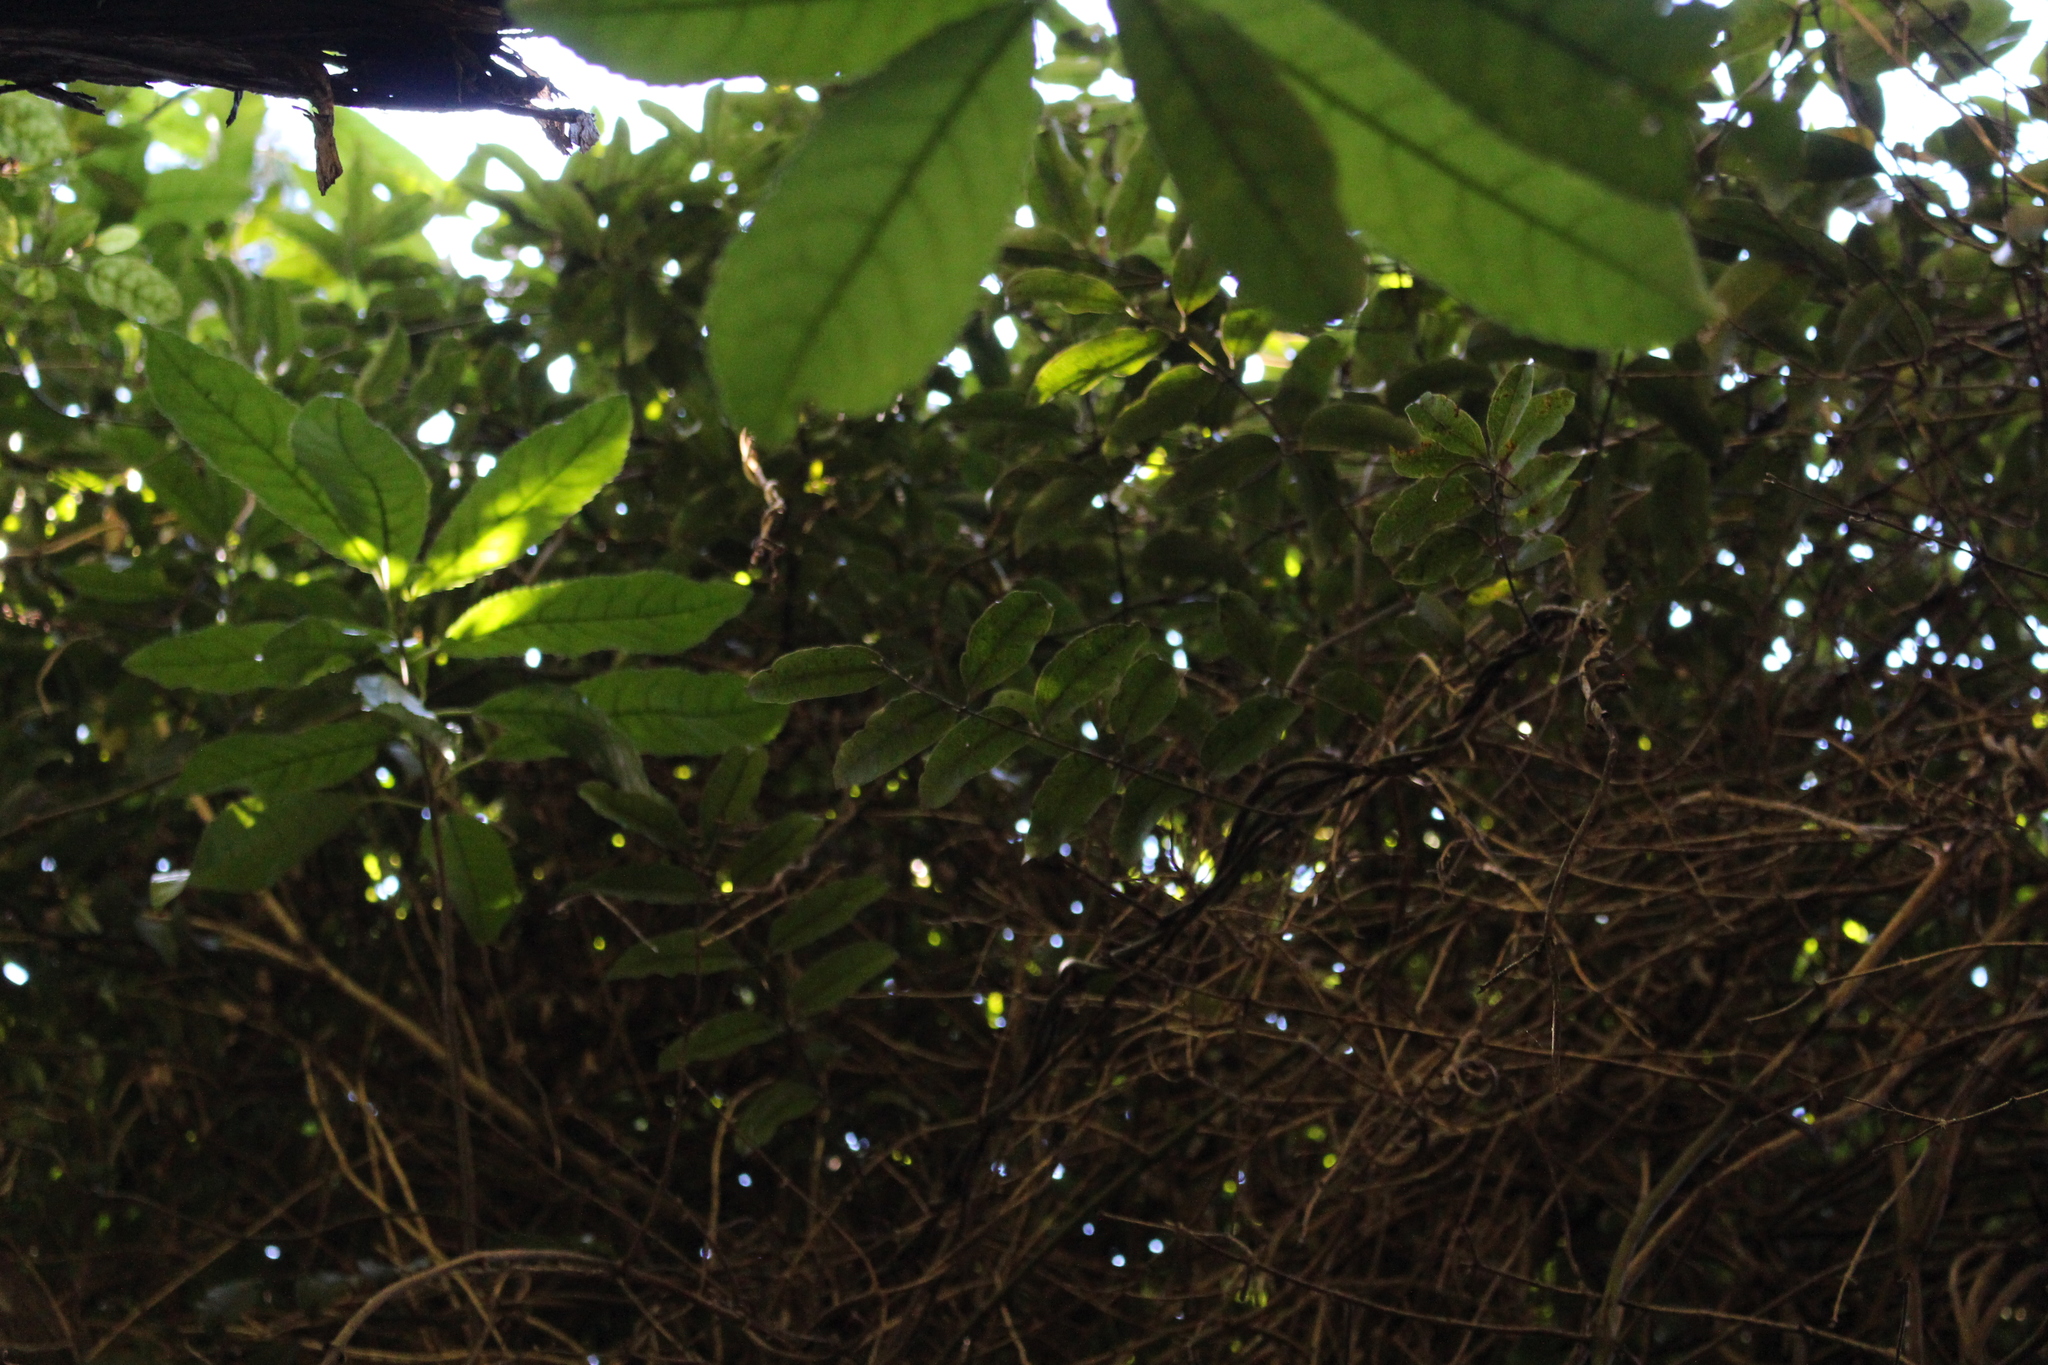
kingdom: Plantae
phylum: Tracheophyta
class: Liliopsida
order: Liliales
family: Ripogonaceae
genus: Ripogonum
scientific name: Ripogonum scandens
